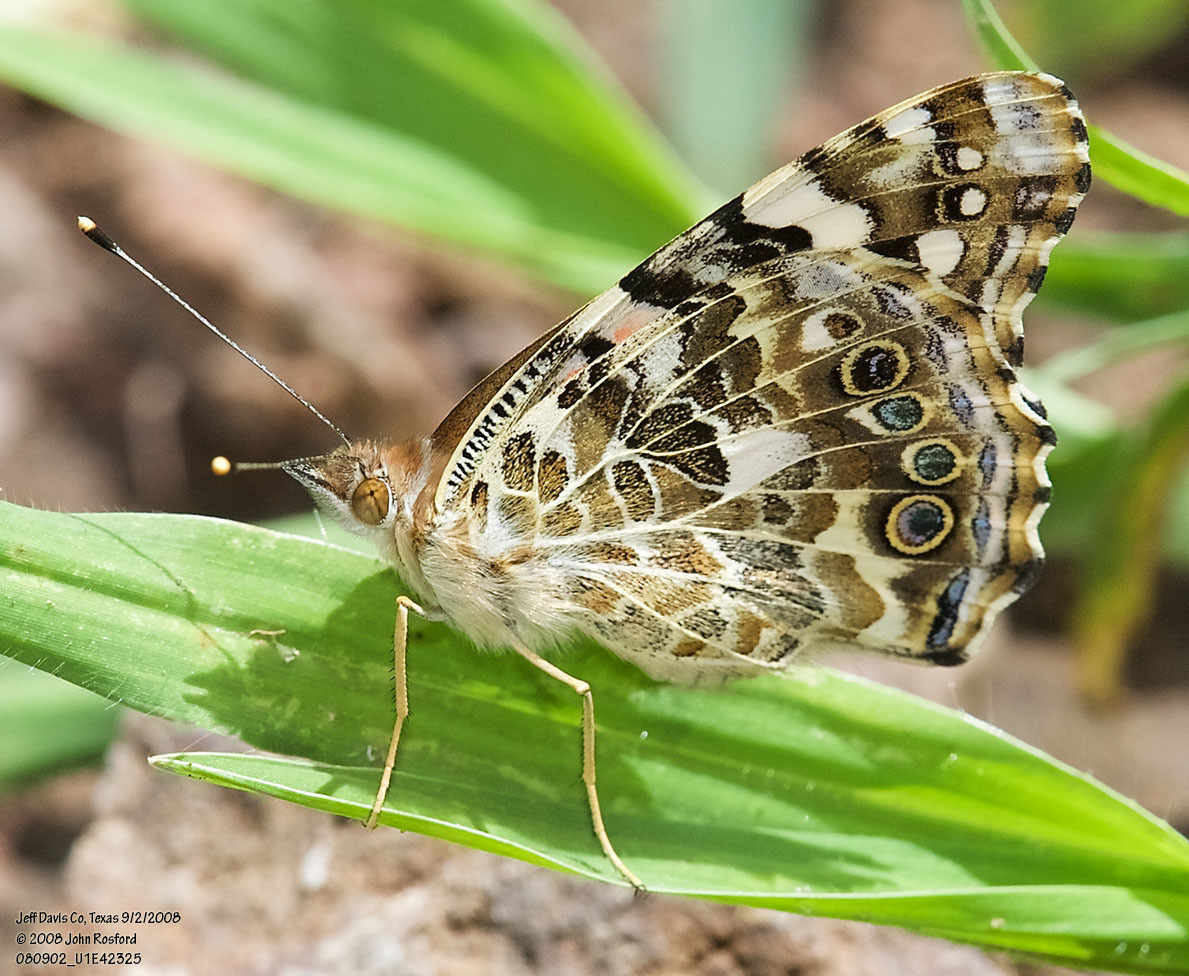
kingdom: Animalia
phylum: Arthropoda
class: Insecta
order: Lepidoptera
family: Nymphalidae
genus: Vanessa
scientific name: Vanessa cardui
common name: Painted lady
